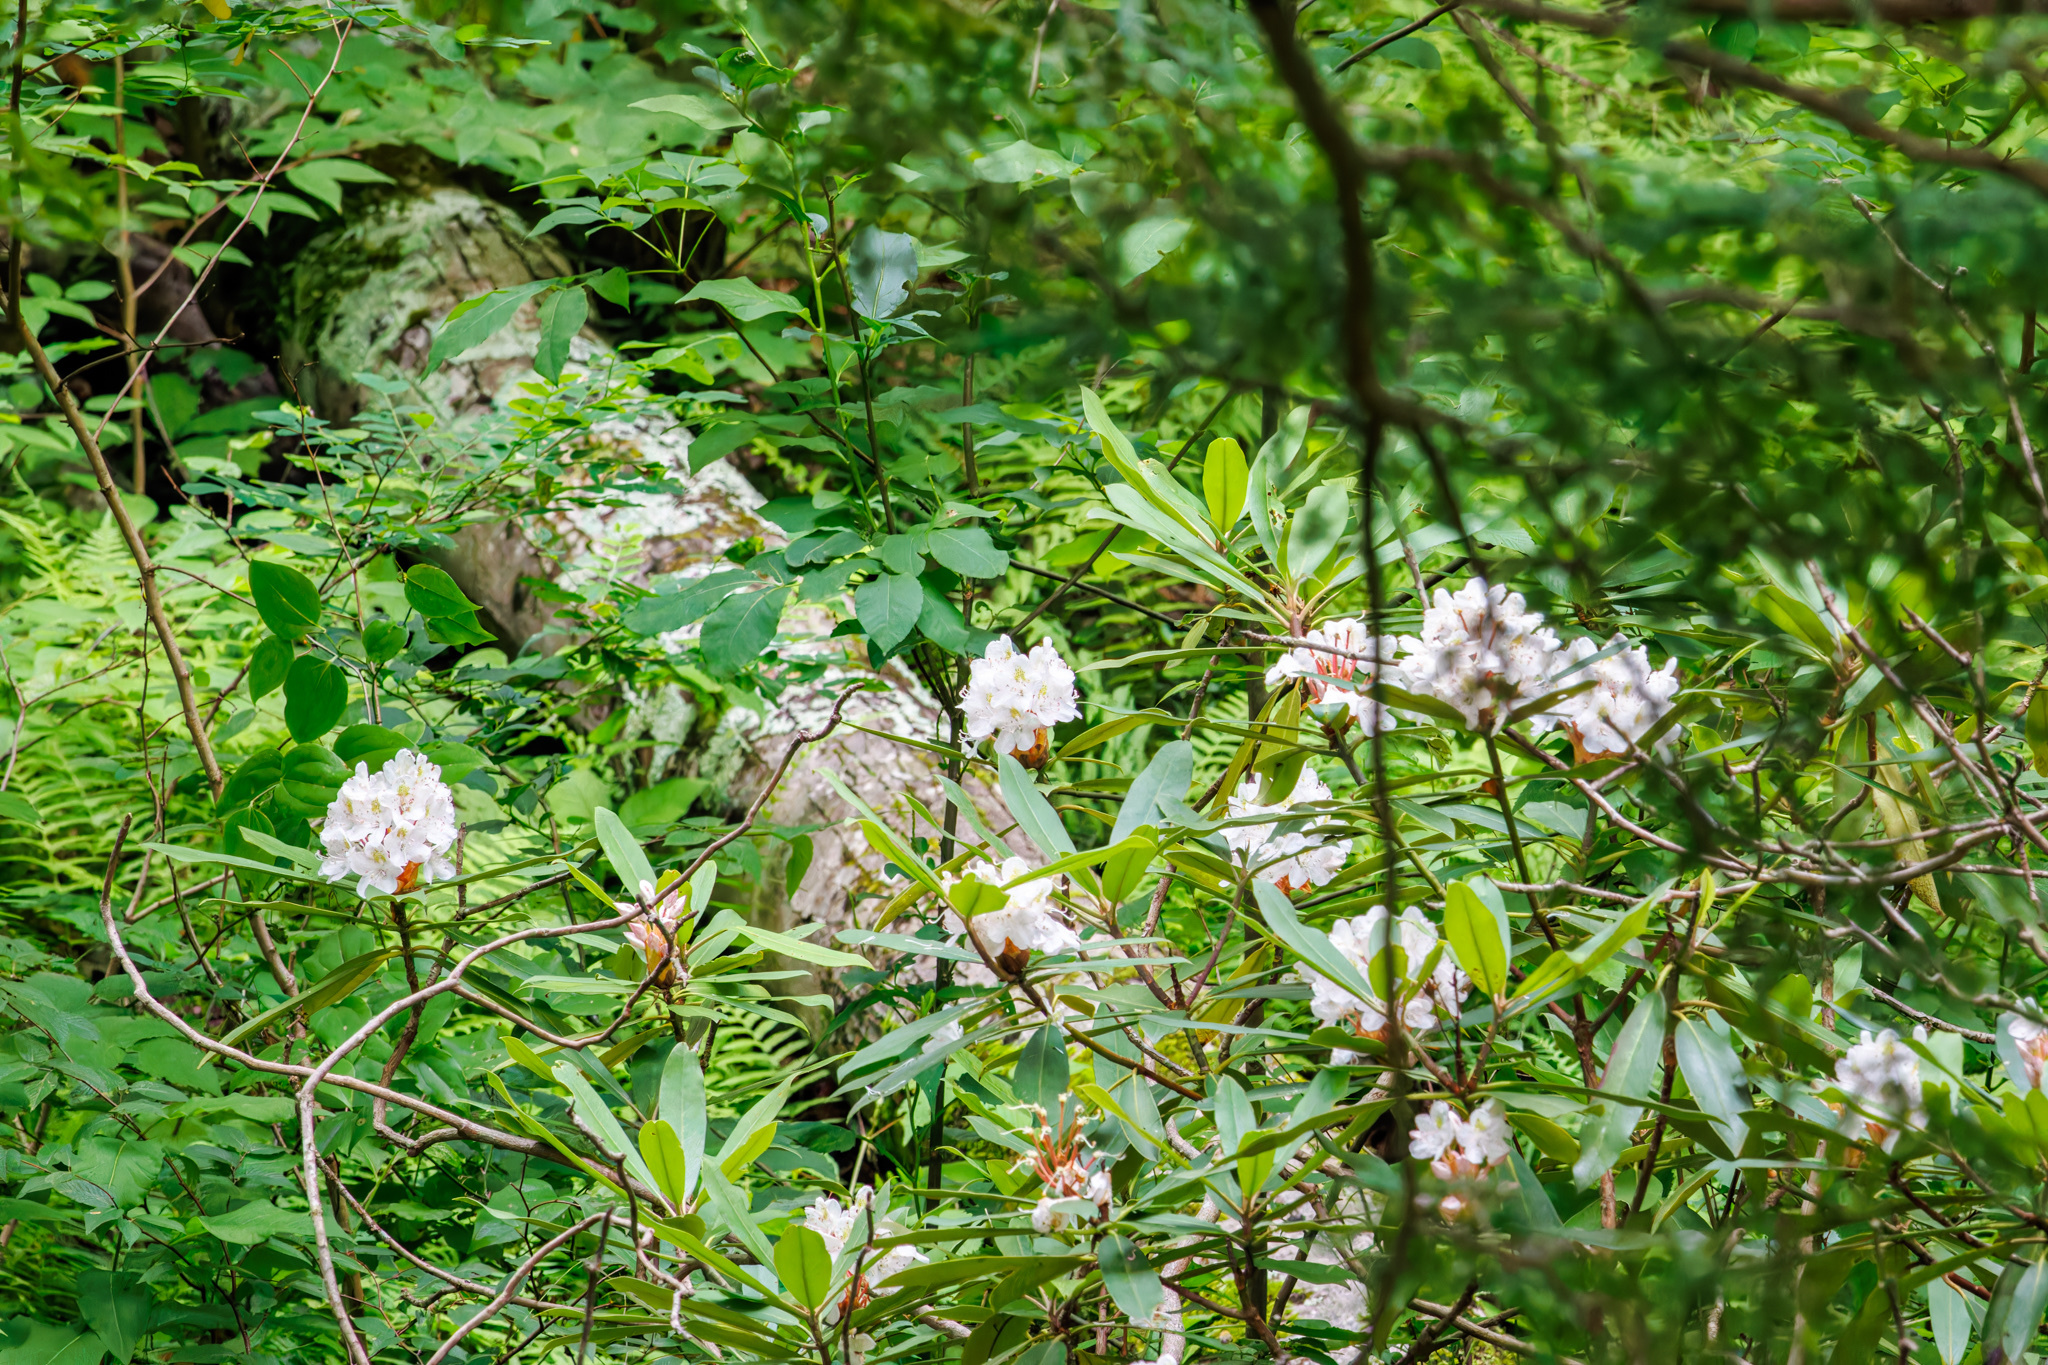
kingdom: Plantae
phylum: Tracheophyta
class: Magnoliopsida
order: Ericales
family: Ericaceae
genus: Rhododendron
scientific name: Rhododendron maximum
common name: Great rhododendron
